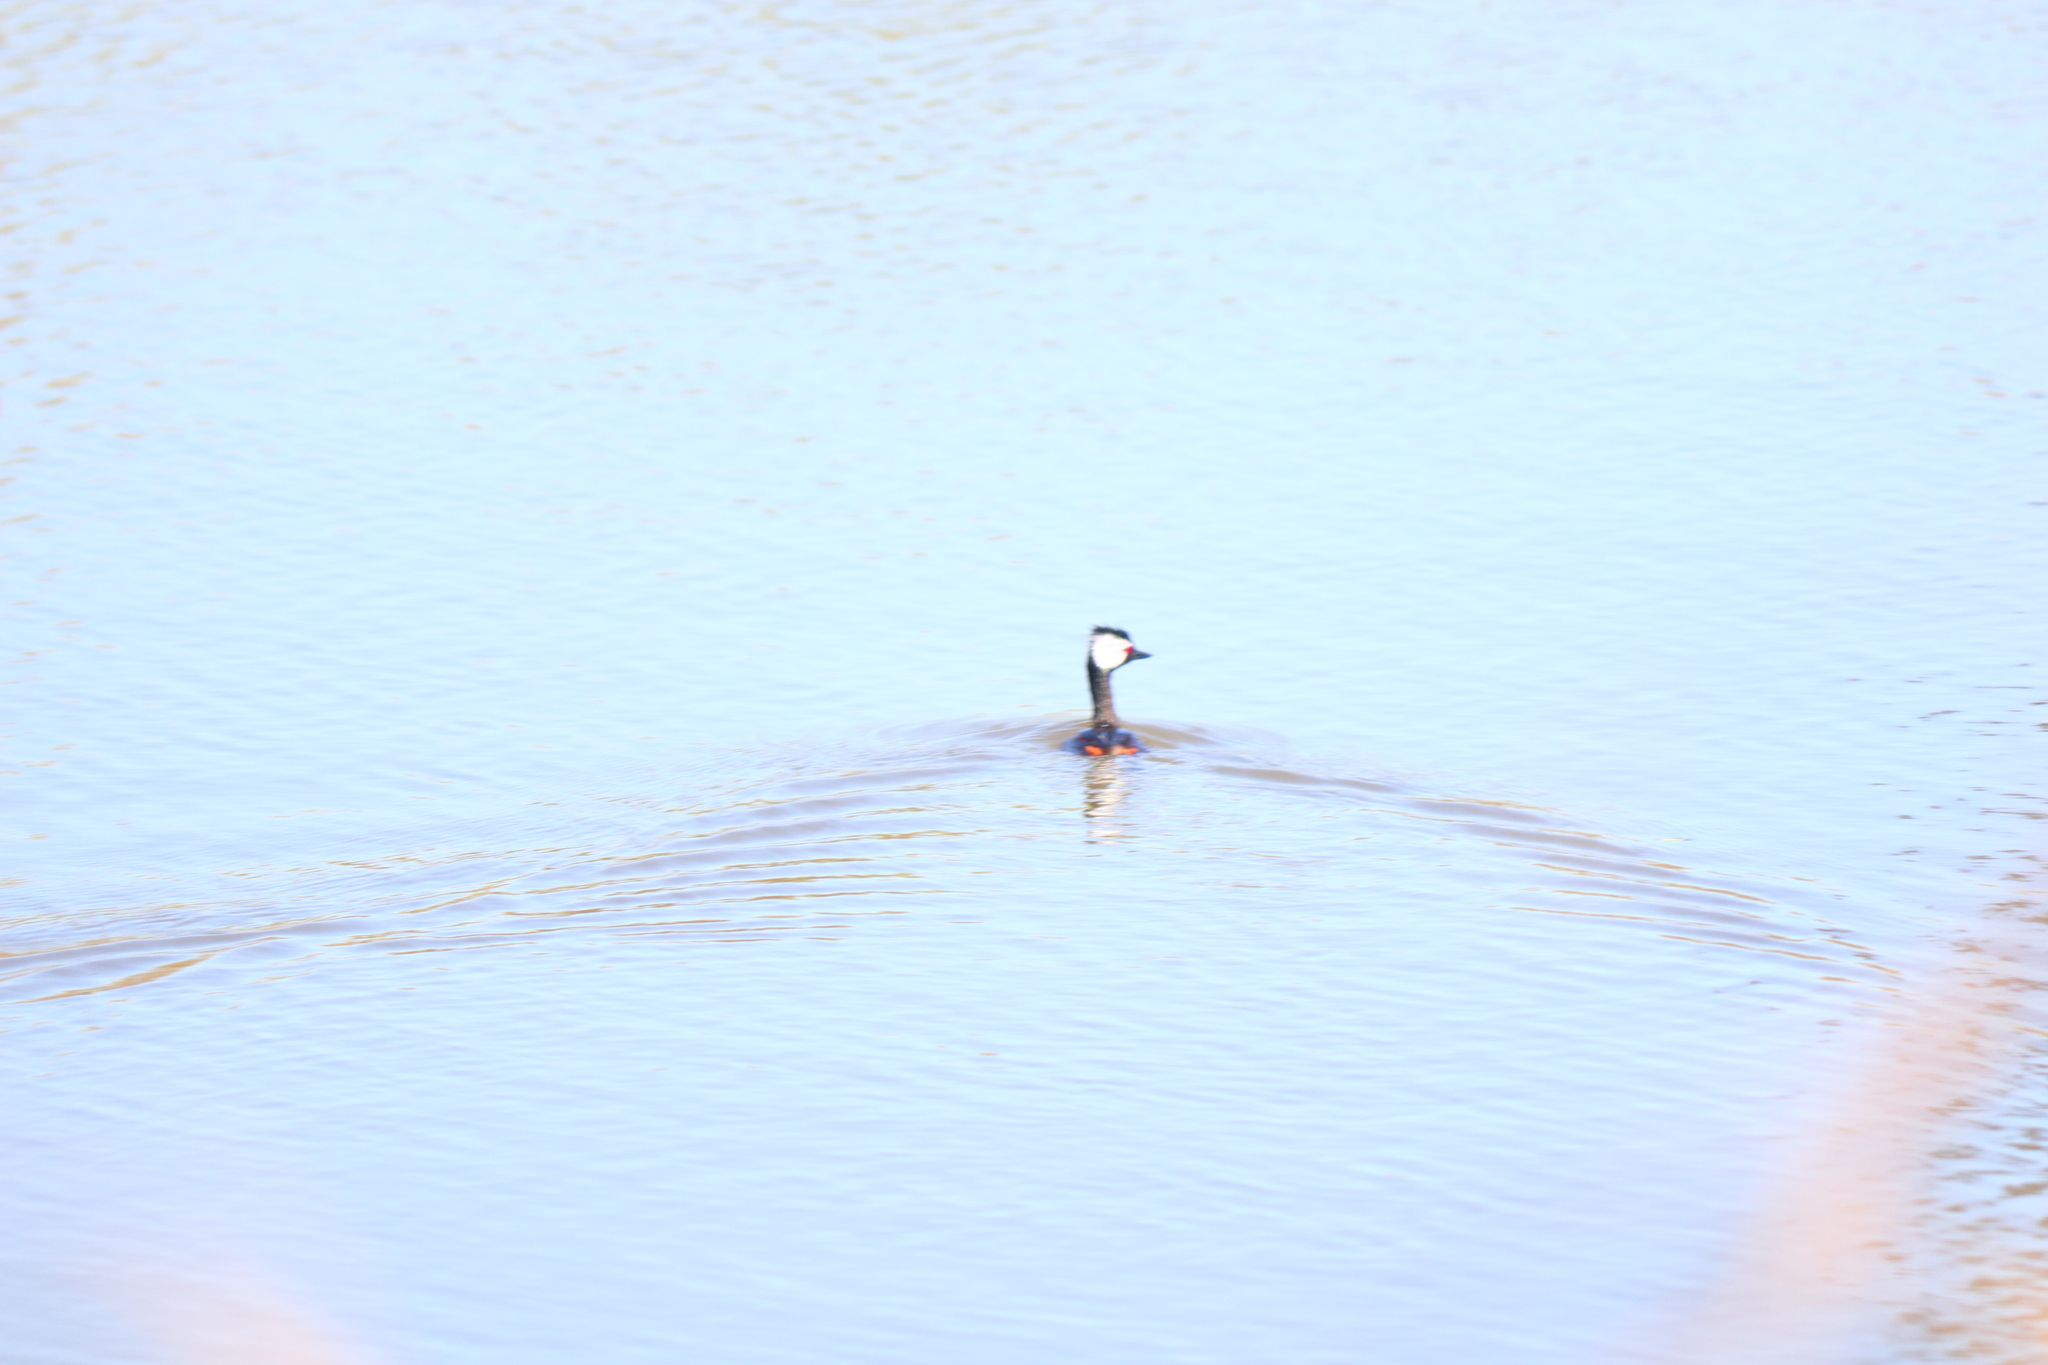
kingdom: Animalia
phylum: Chordata
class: Aves
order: Podicipediformes
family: Podicipedidae
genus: Rollandia
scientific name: Rollandia rolland
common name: White-tufted grebe
